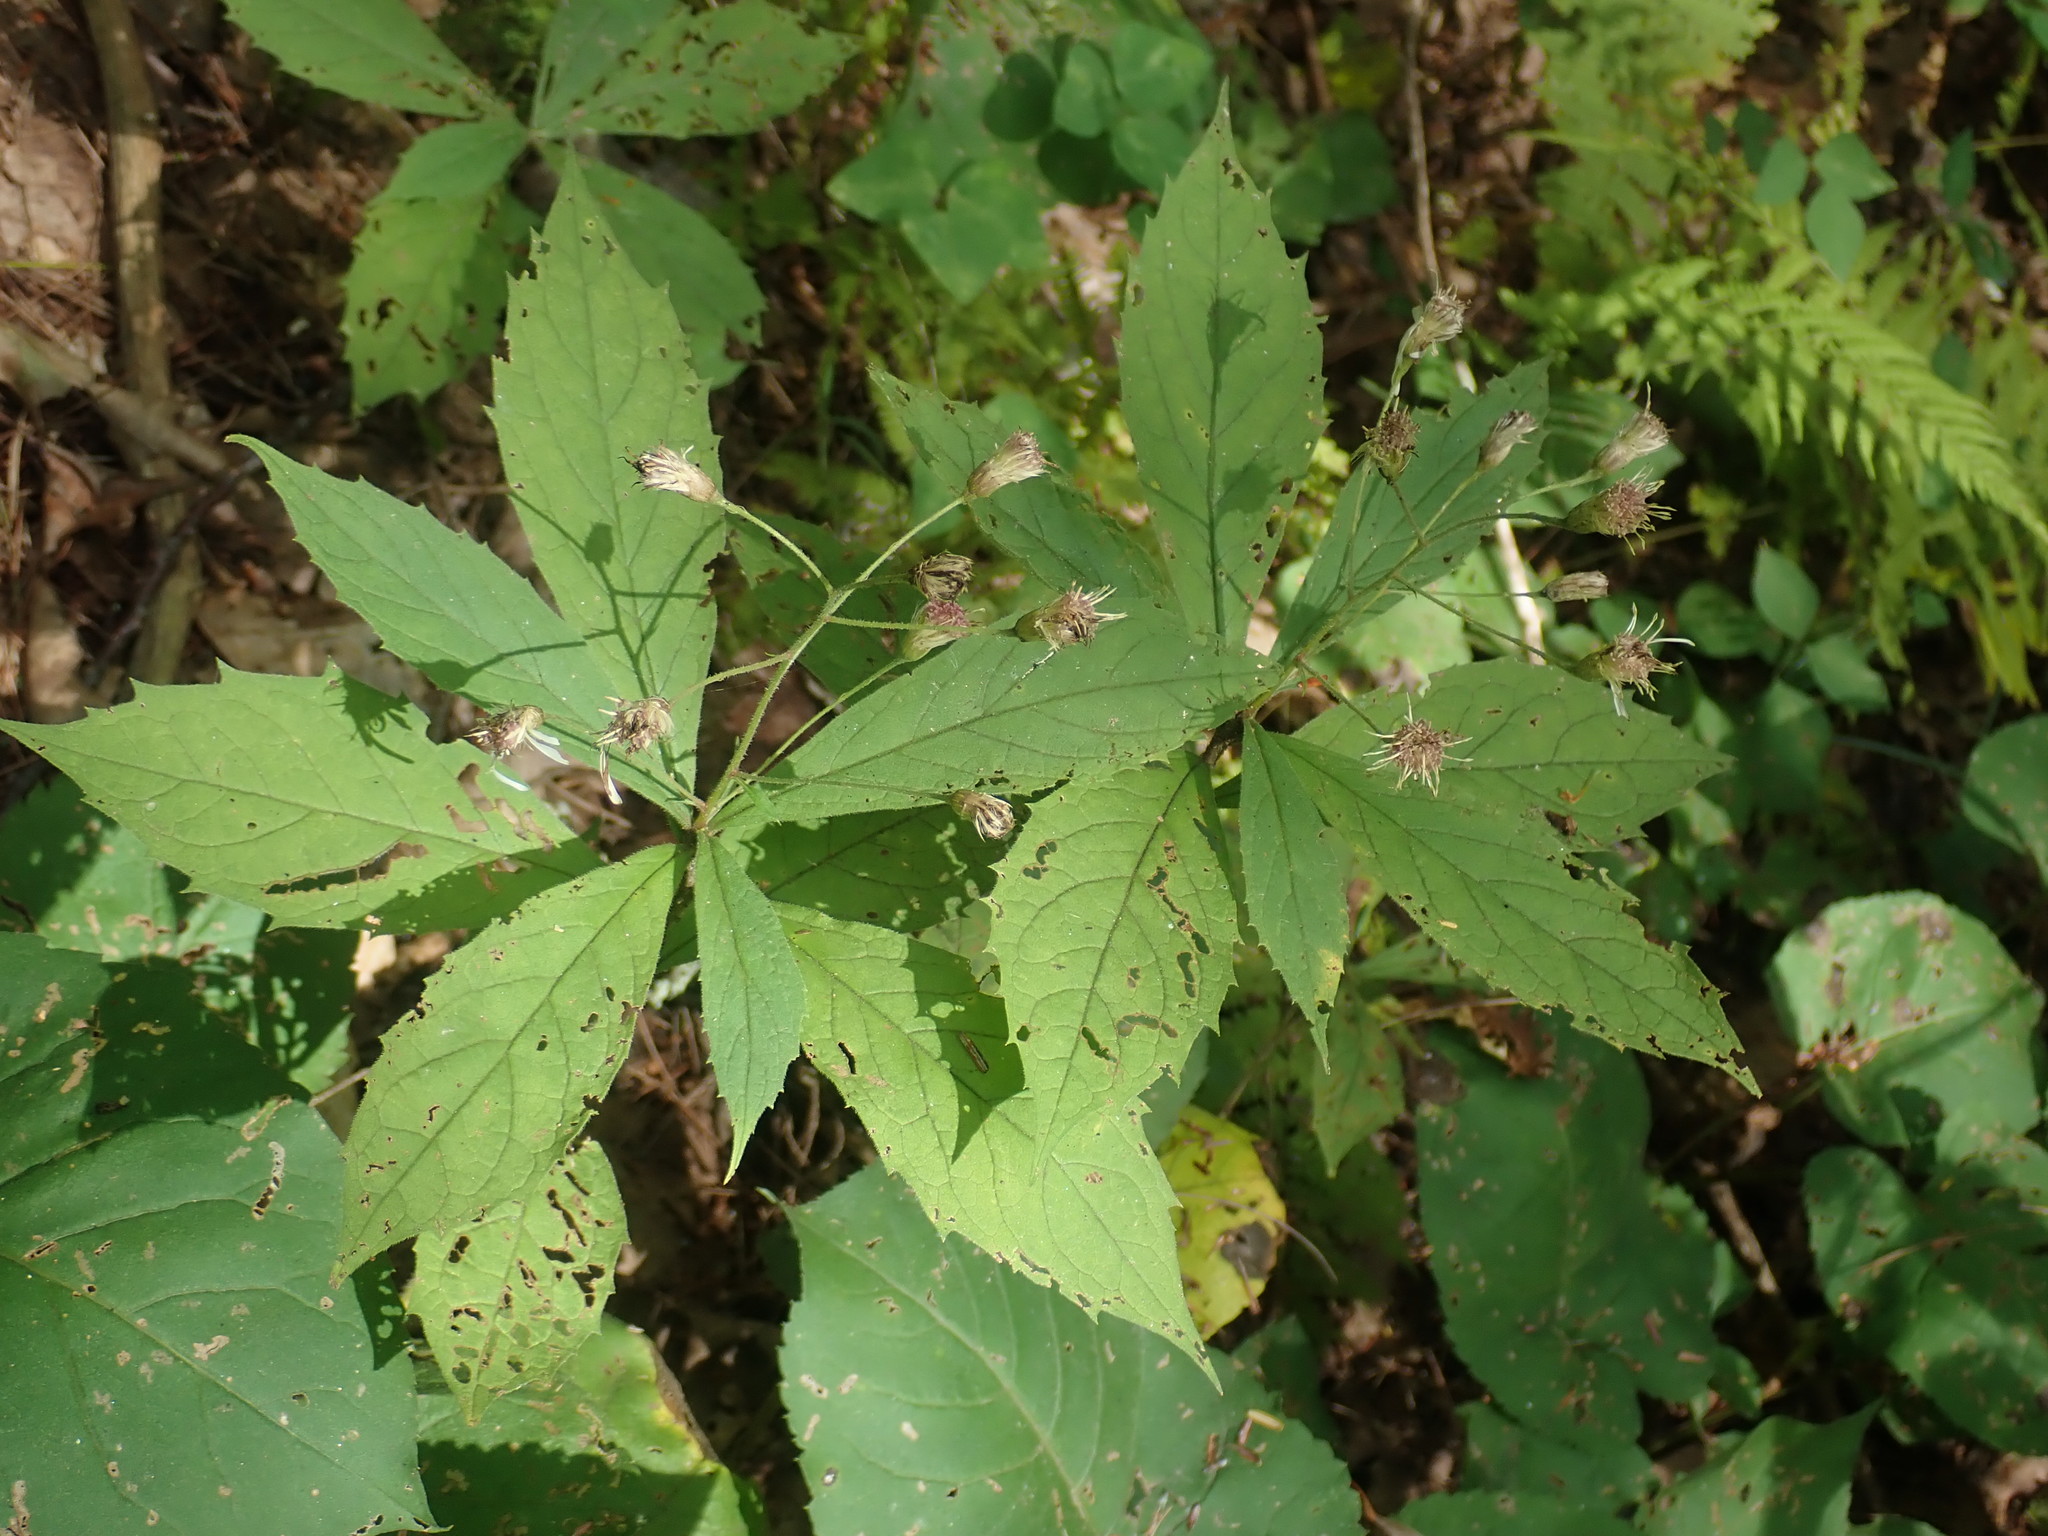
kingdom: Plantae
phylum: Tracheophyta
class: Magnoliopsida
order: Asterales
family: Asteraceae
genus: Oclemena
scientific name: Oclemena acuminata
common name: Mountain aster
